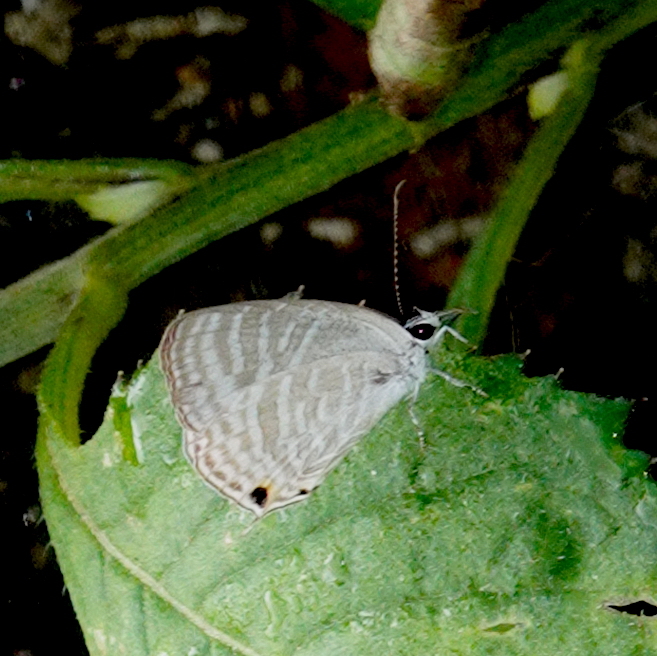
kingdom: Animalia
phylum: Arthropoda
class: Insecta
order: Lepidoptera
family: Lycaenidae
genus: Jamides
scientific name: Jamides celeno
